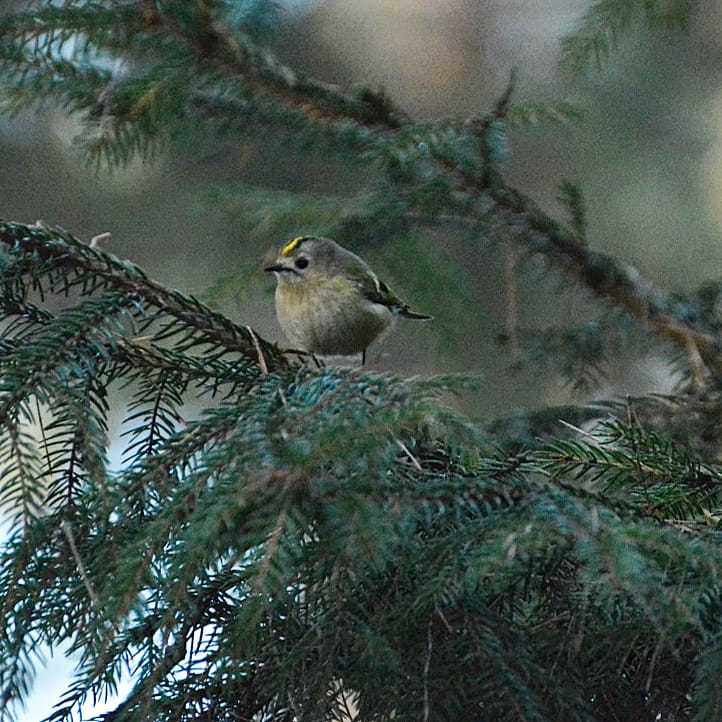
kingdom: Animalia
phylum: Chordata
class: Aves
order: Passeriformes
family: Regulidae
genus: Regulus
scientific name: Regulus regulus
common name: Goldcrest
